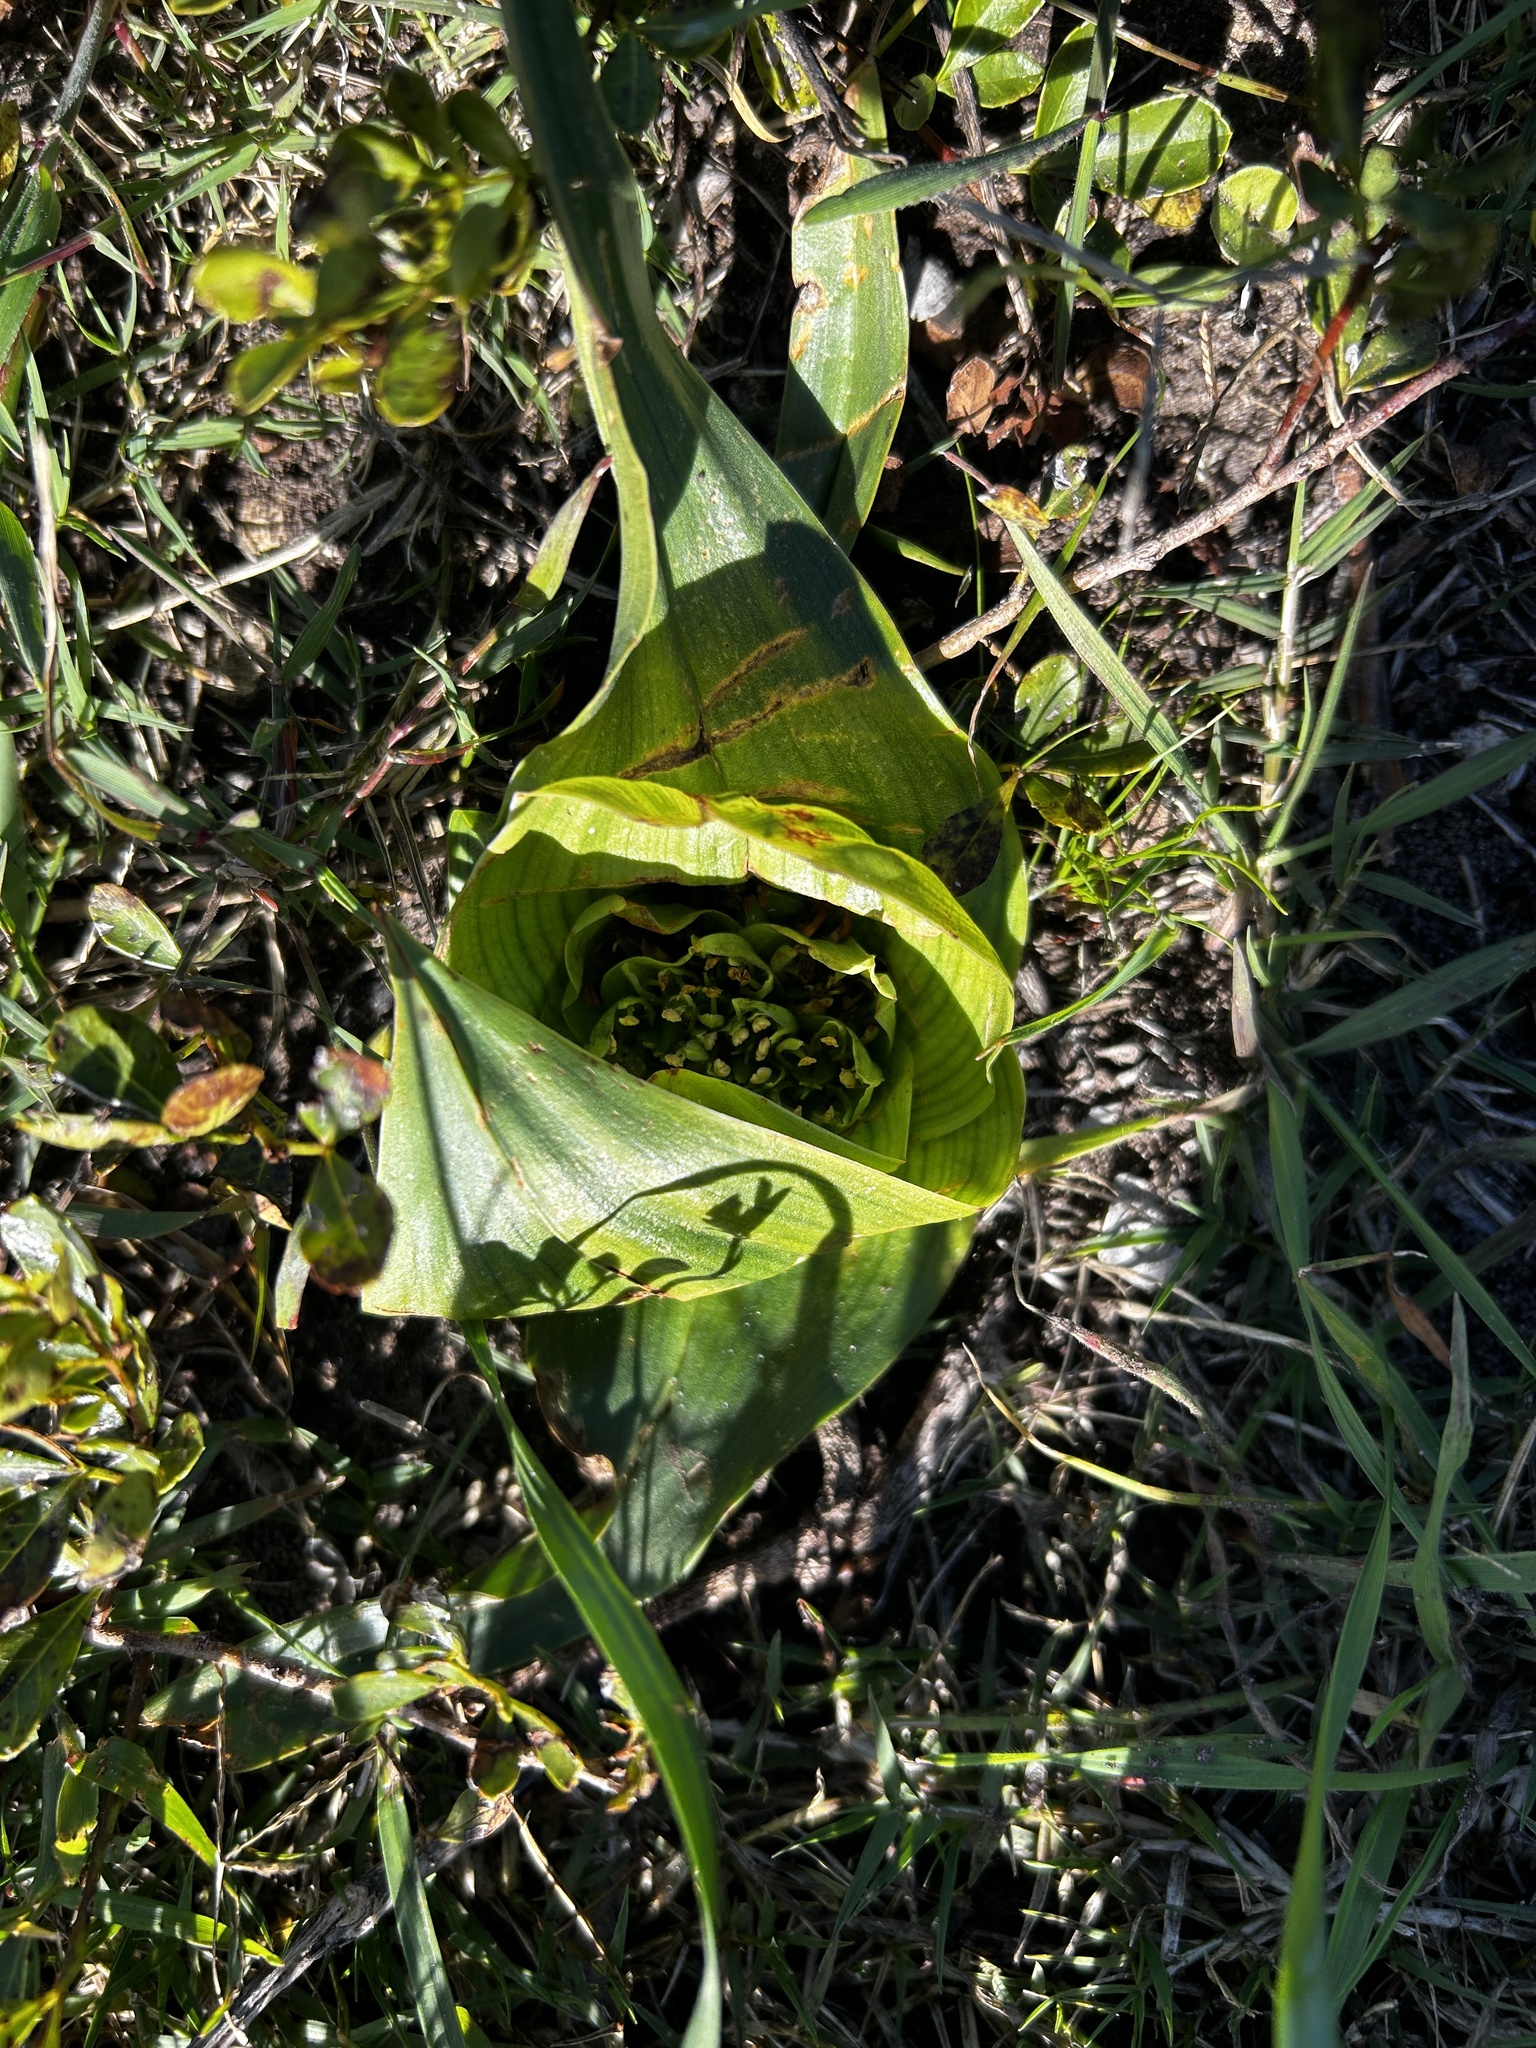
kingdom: Plantae
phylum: Tracheophyta
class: Liliopsida
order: Liliales
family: Colchicaceae
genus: Colchicum
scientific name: Colchicum eucomoides
